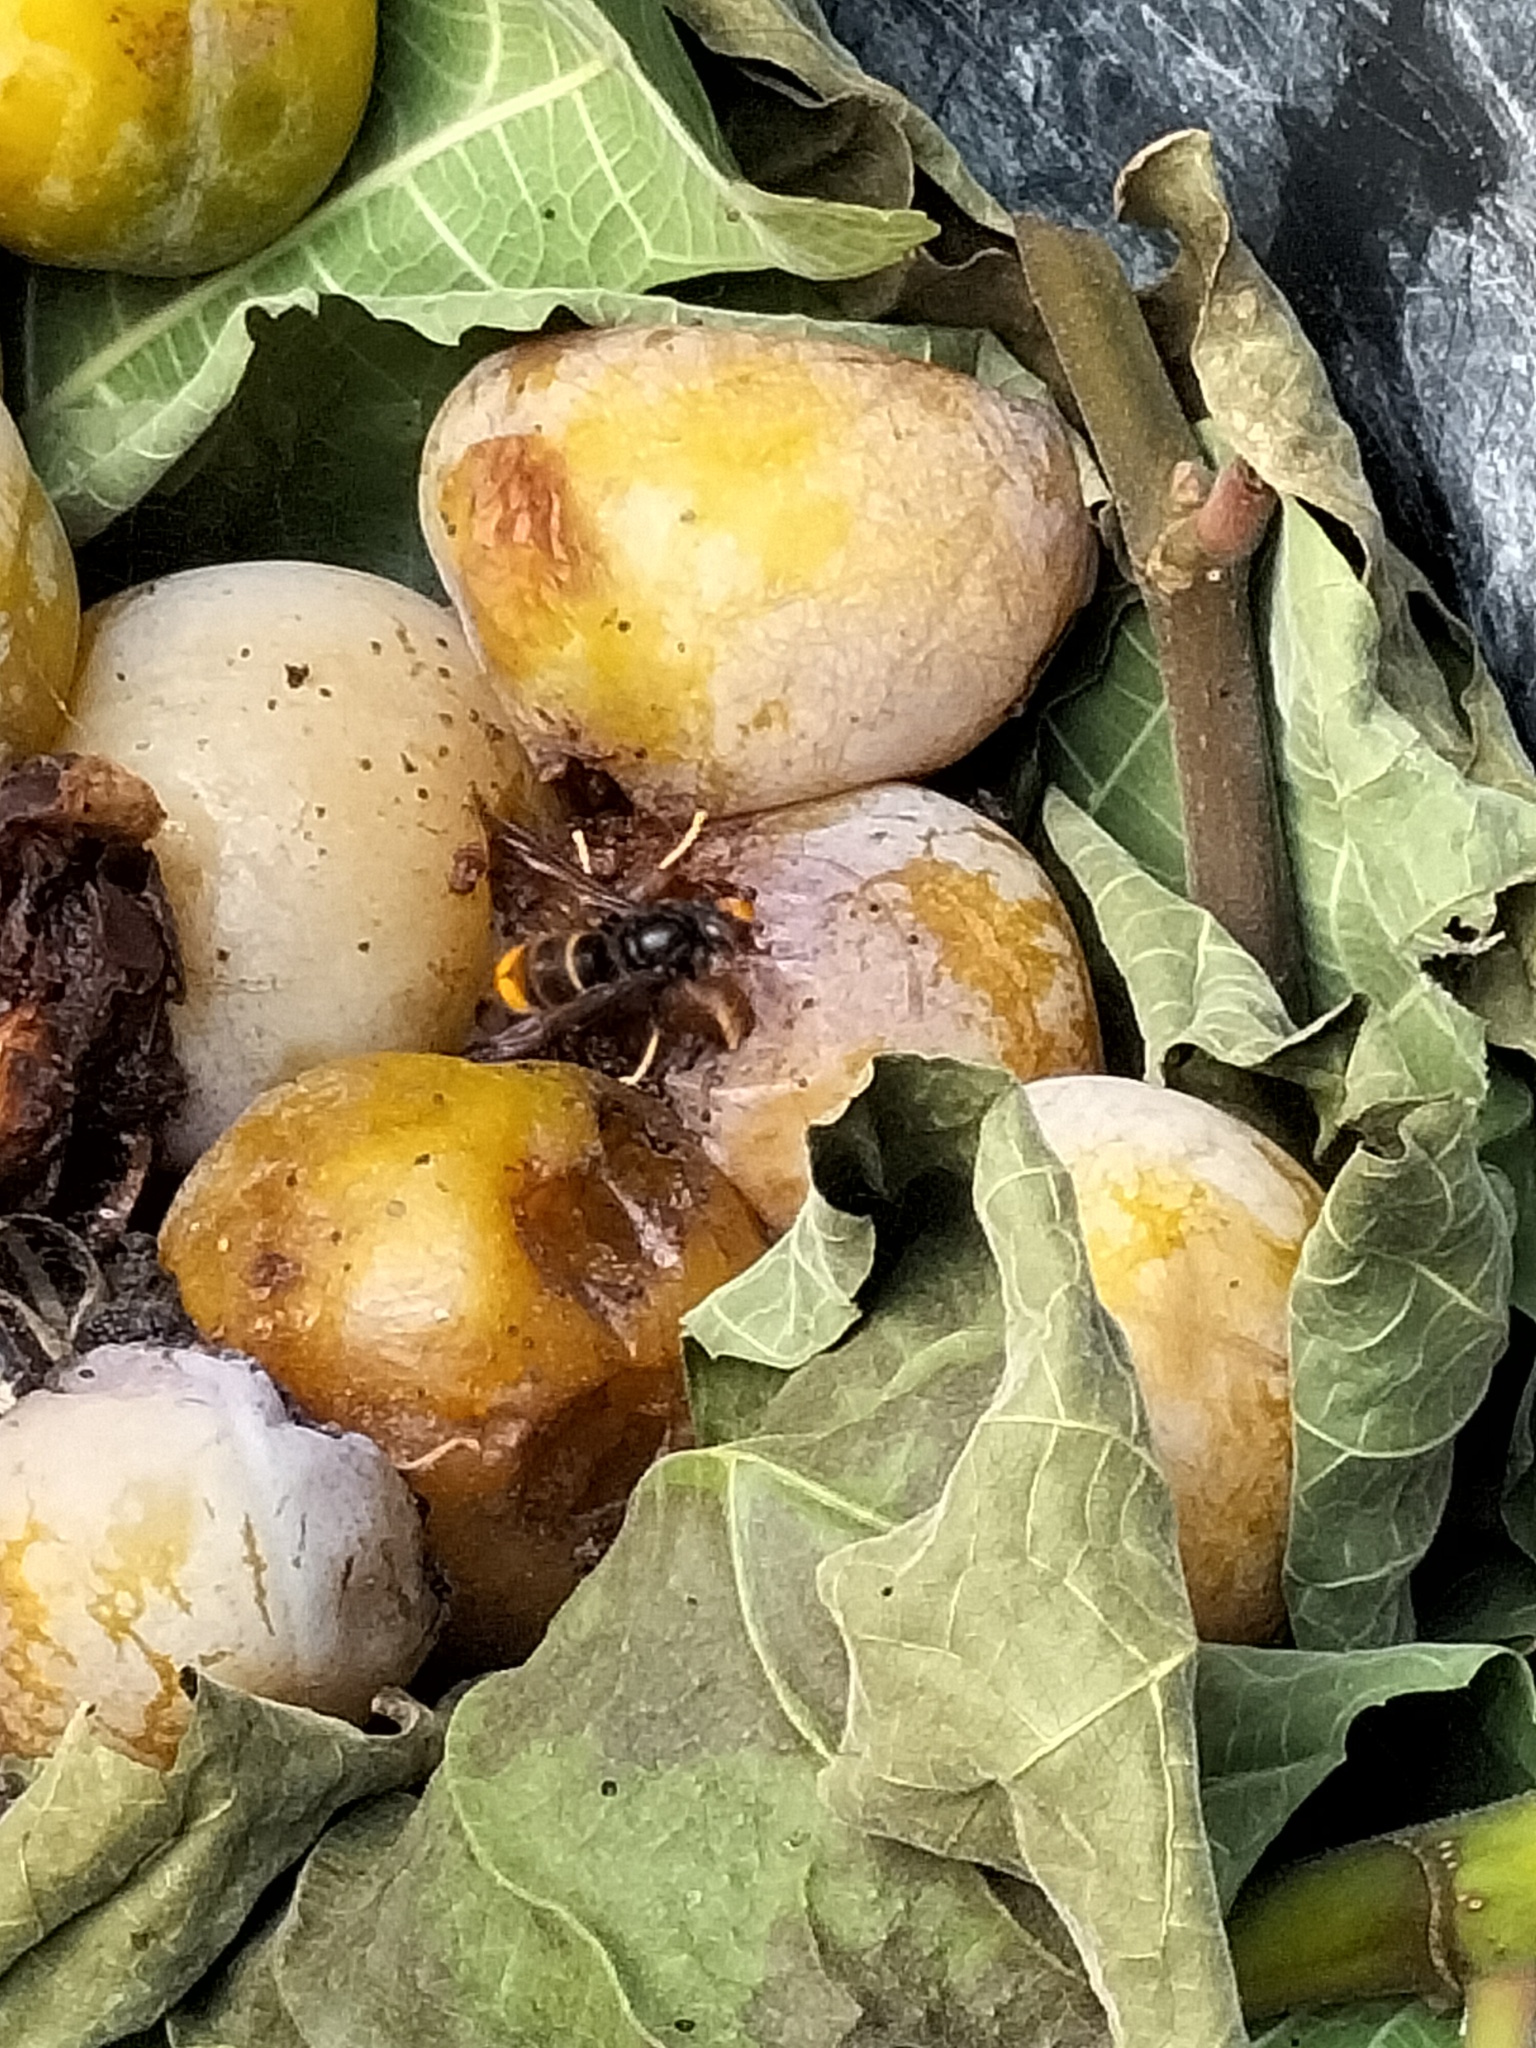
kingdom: Animalia
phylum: Arthropoda
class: Insecta
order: Hymenoptera
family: Vespidae
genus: Vespa
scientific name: Vespa velutina
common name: Asian hornet
